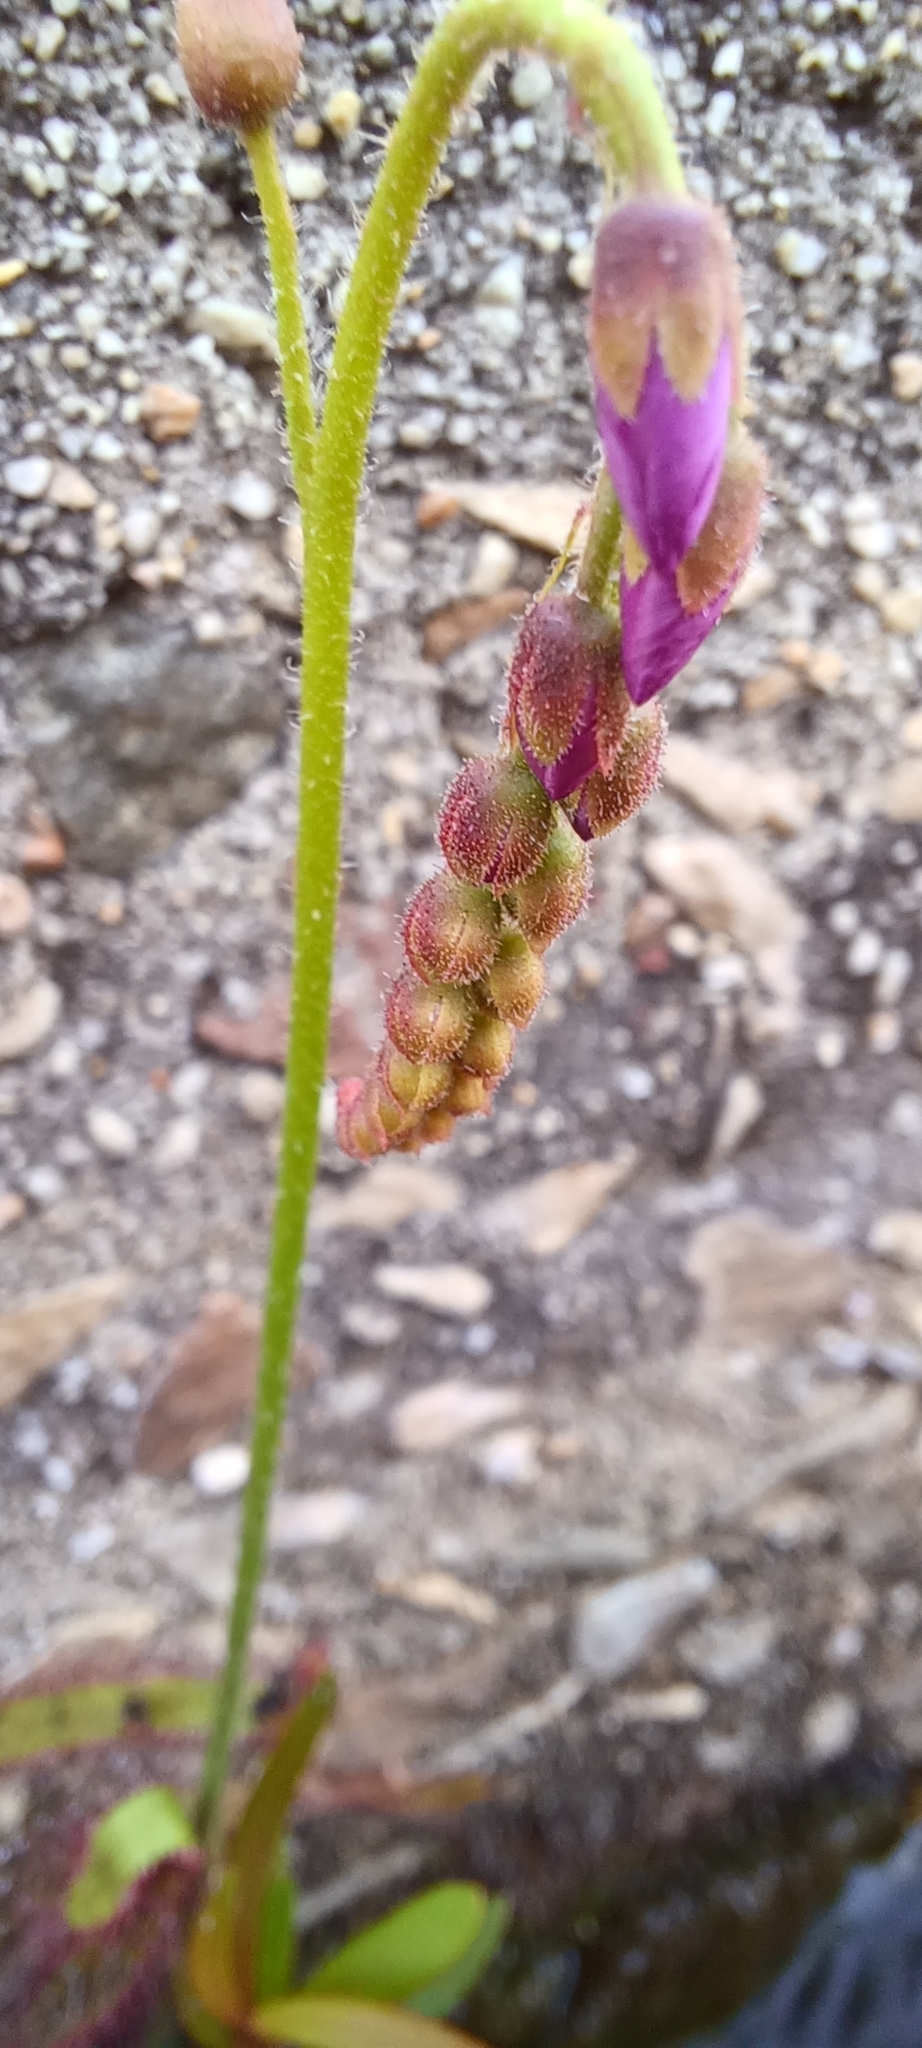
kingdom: Plantae
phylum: Tracheophyta
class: Magnoliopsida
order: Caryophyllales
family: Droseraceae
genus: Drosera
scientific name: Drosera capensis
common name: Cape sundew
